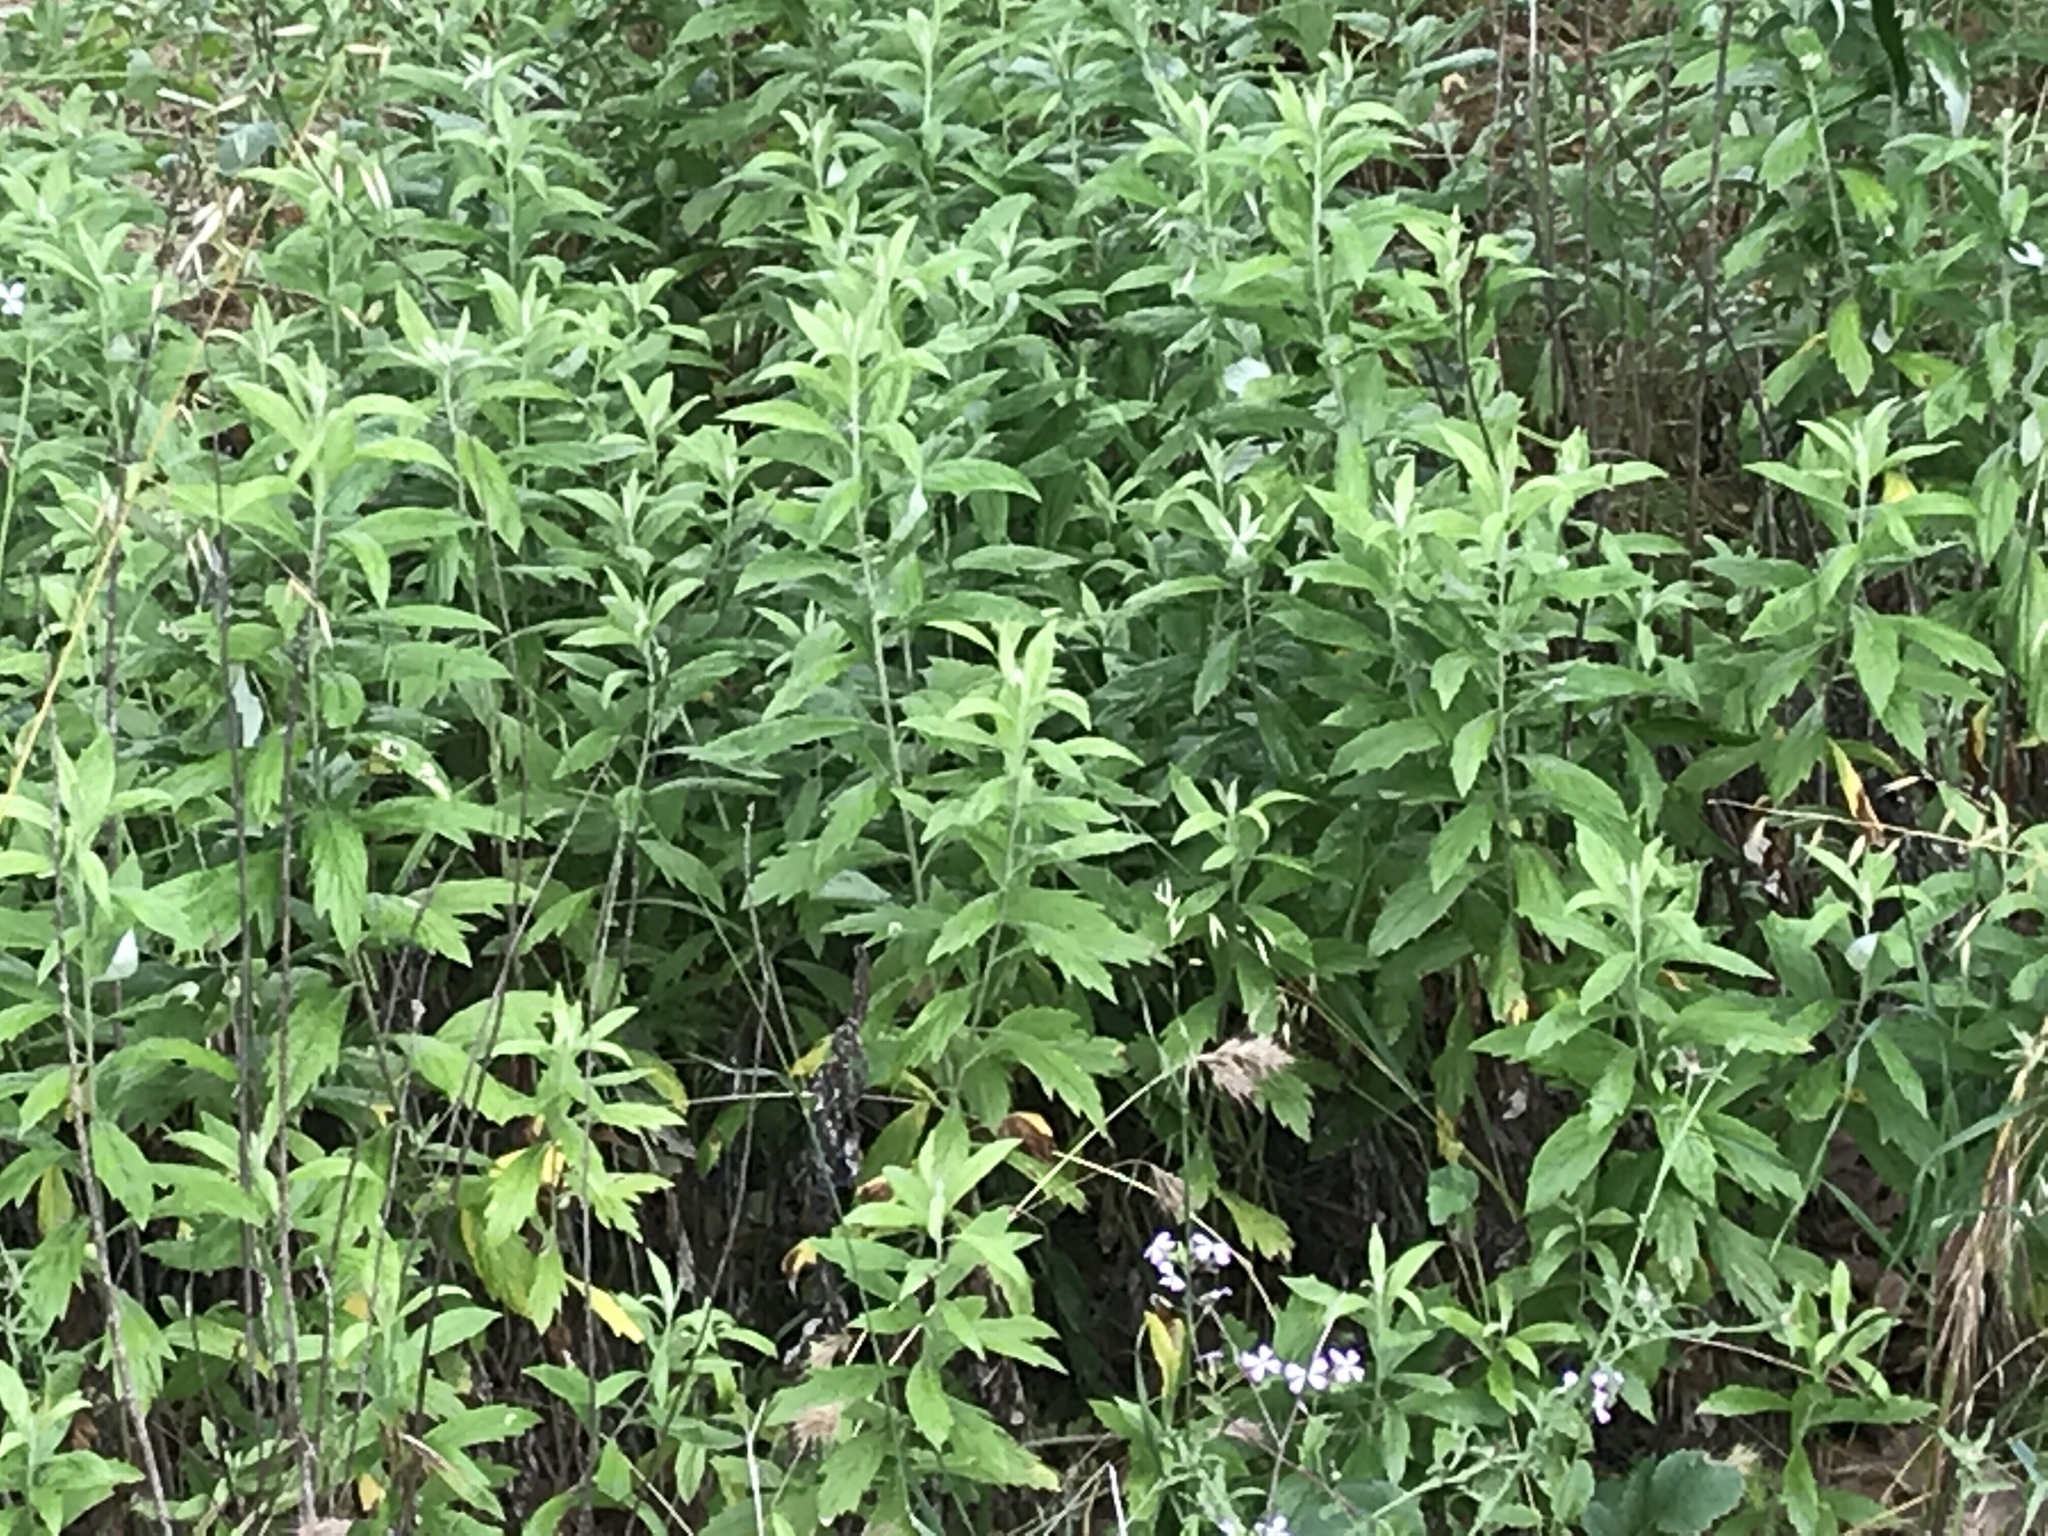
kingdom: Plantae
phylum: Tracheophyta
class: Magnoliopsida
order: Asterales
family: Asteraceae
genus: Artemisia
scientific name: Artemisia douglasiana
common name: Northwest mugwort
